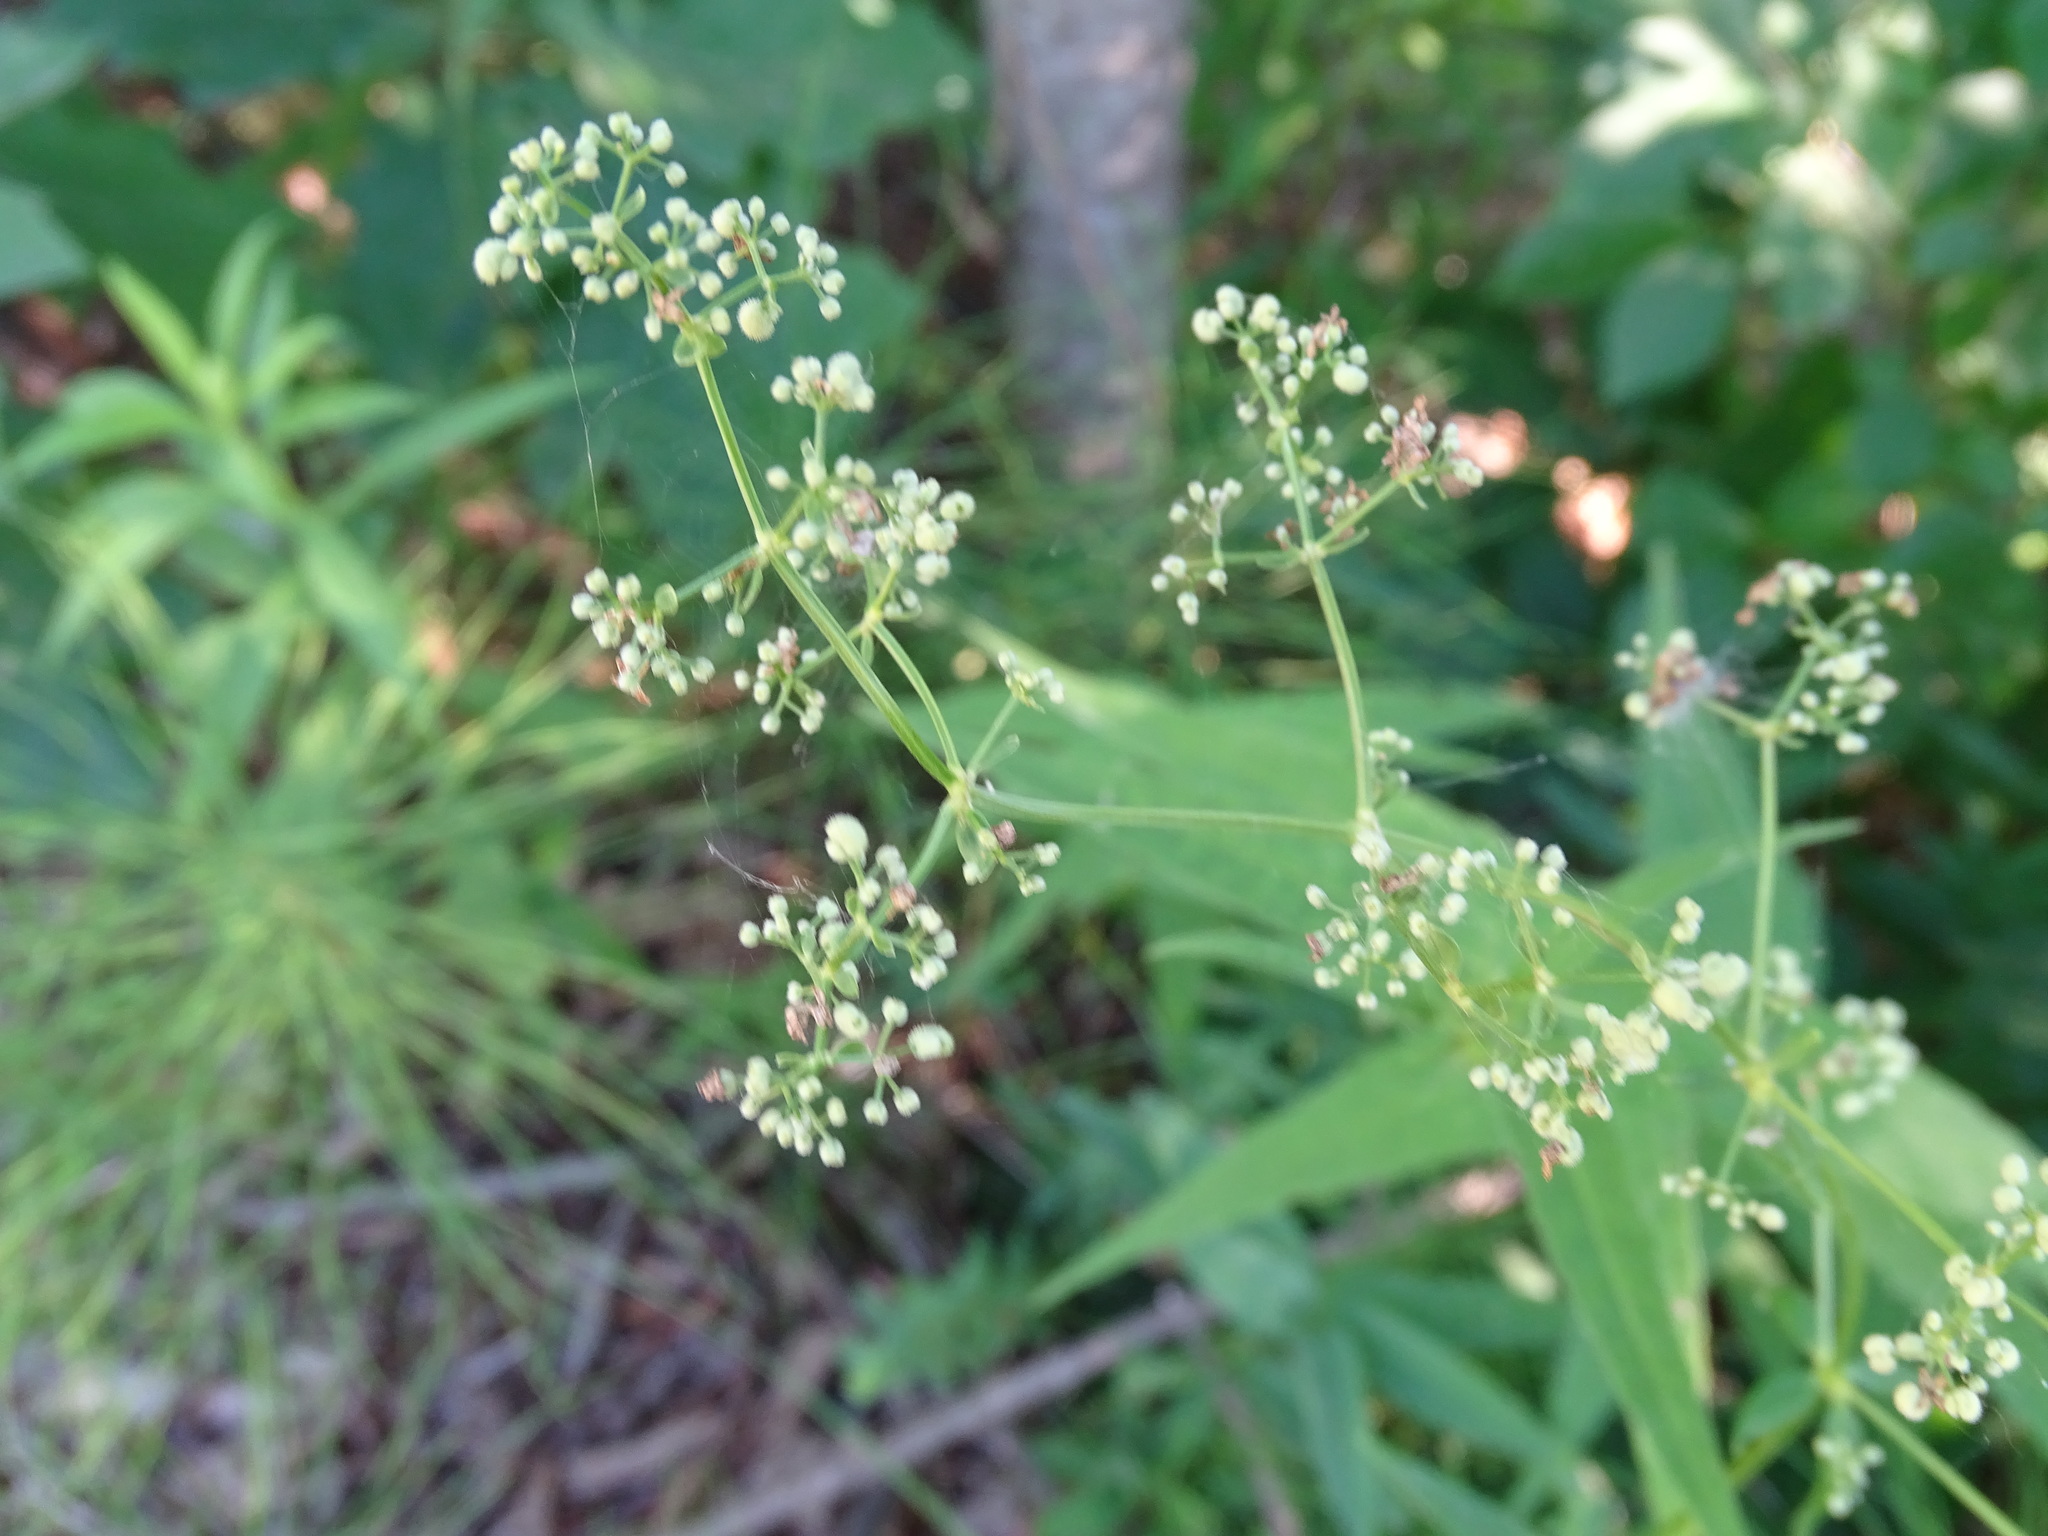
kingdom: Plantae
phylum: Tracheophyta
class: Magnoliopsida
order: Gentianales
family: Rubiaceae
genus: Galium
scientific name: Galium boreale
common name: Northern bedstraw
